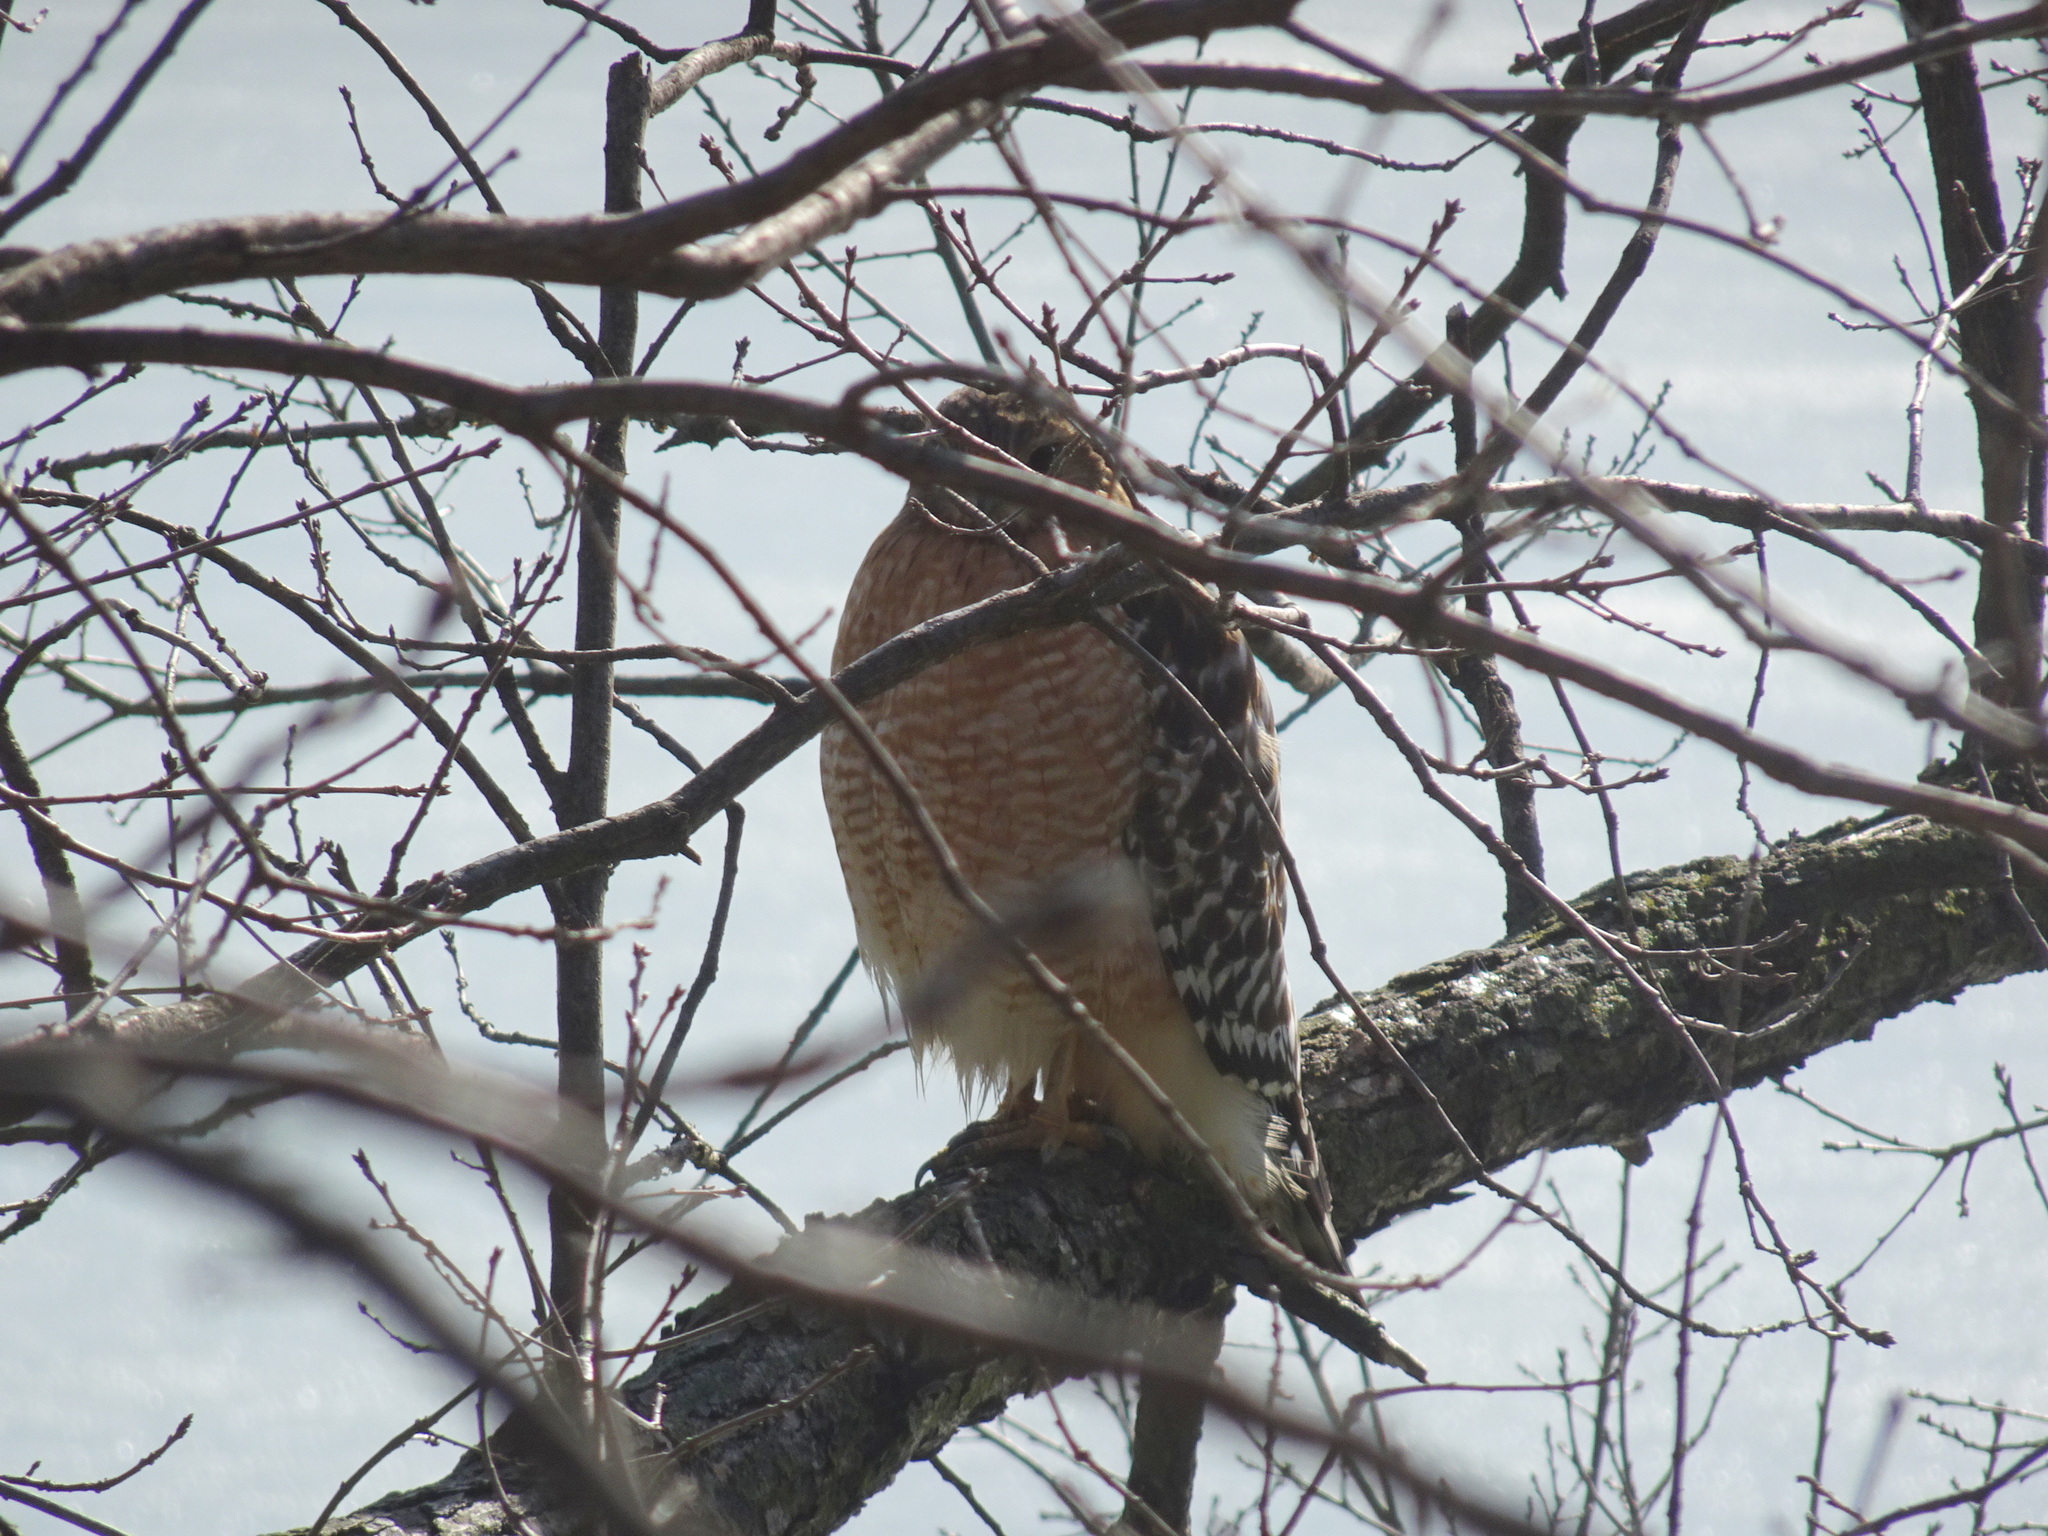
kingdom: Animalia
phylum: Chordata
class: Aves
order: Accipitriformes
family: Accipitridae
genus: Buteo
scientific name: Buteo lineatus
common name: Red-shouldered hawk
